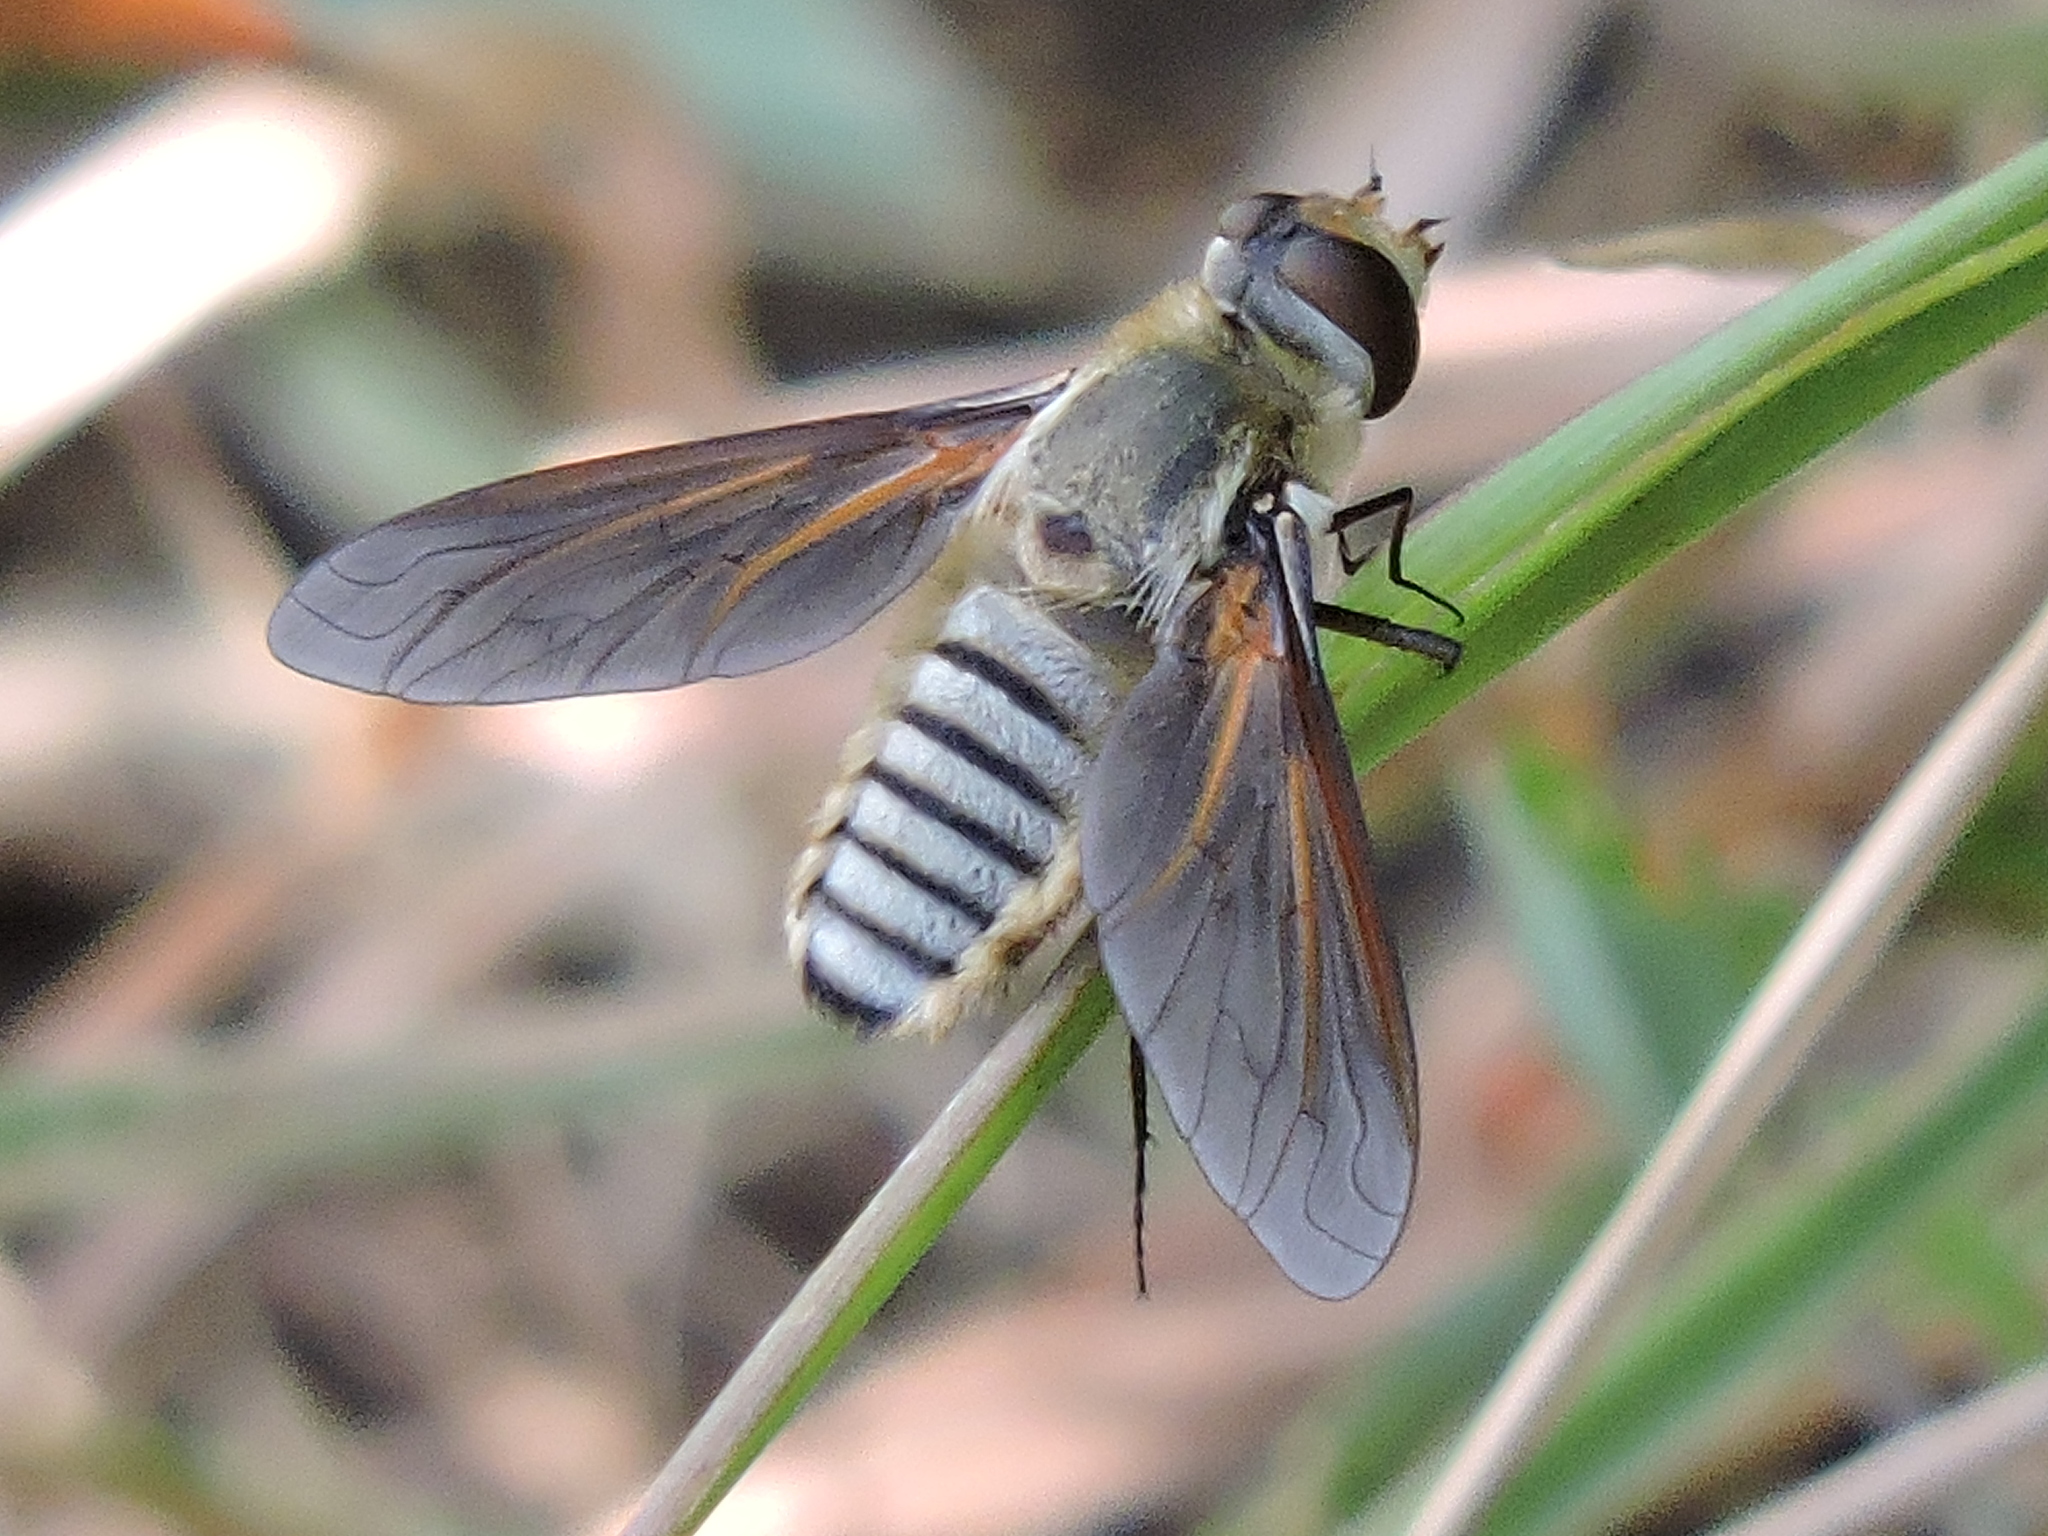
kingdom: Animalia
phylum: Arthropoda
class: Insecta
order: Diptera
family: Bombyliidae
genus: Poecilanthrax
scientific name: Poecilanthrax lucifer
